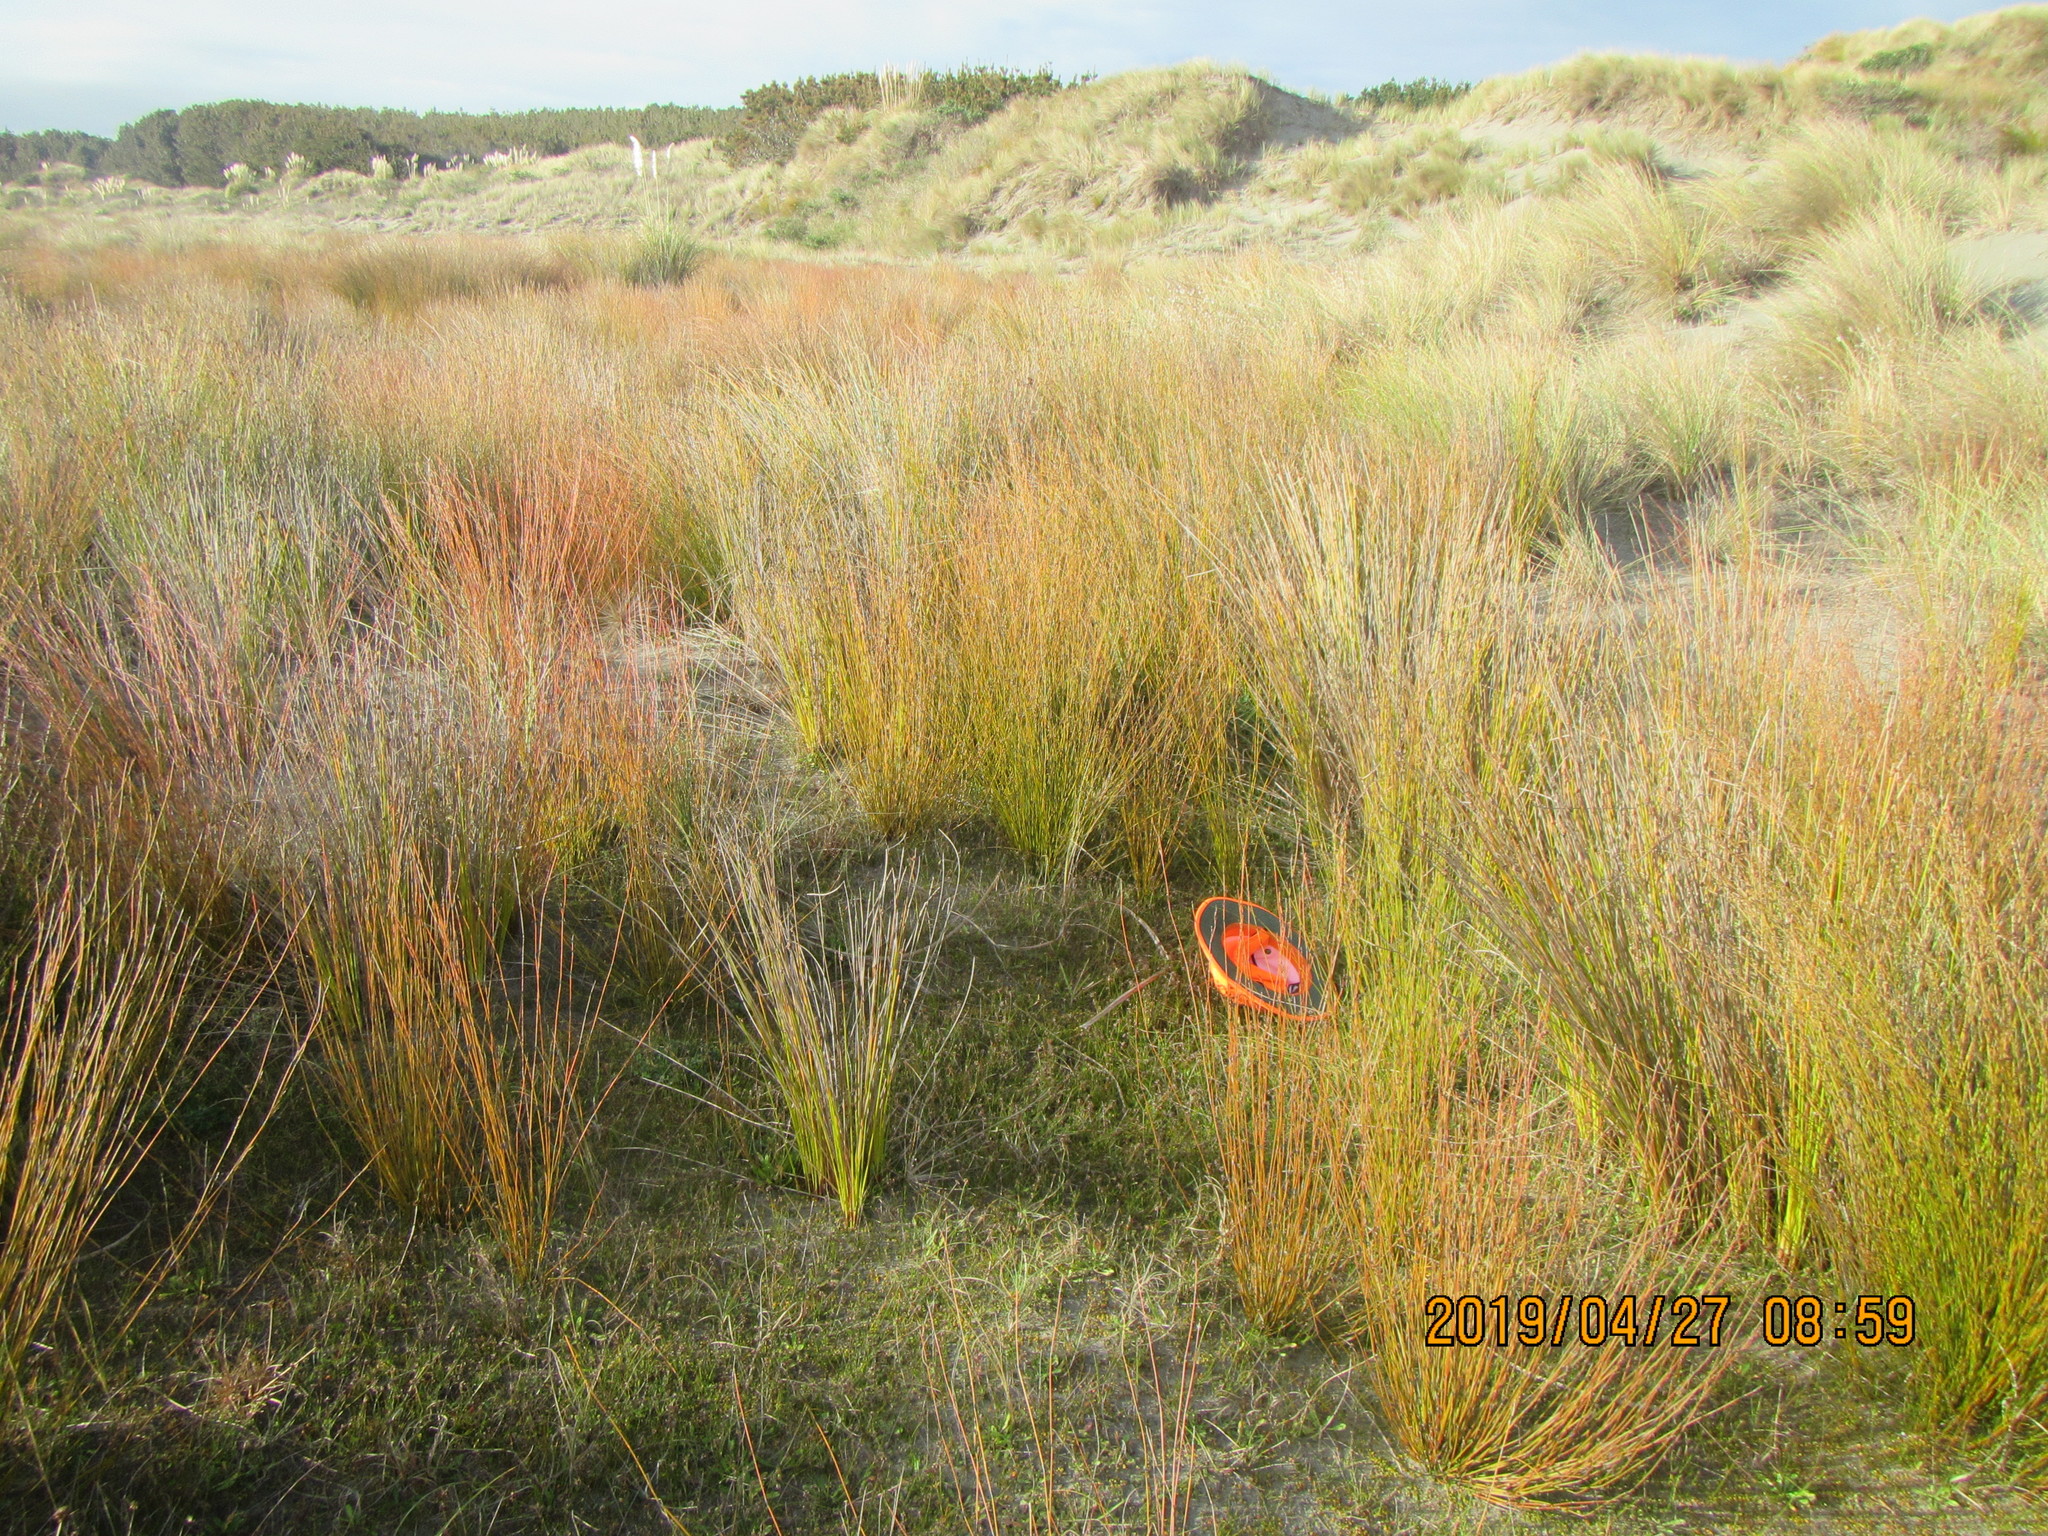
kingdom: Animalia
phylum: Mollusca
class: Gastropoda
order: Stylommatophora
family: Geomitridae
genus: Xeroplexa
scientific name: Xeroplexa intersecta
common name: Wrinkled snail
